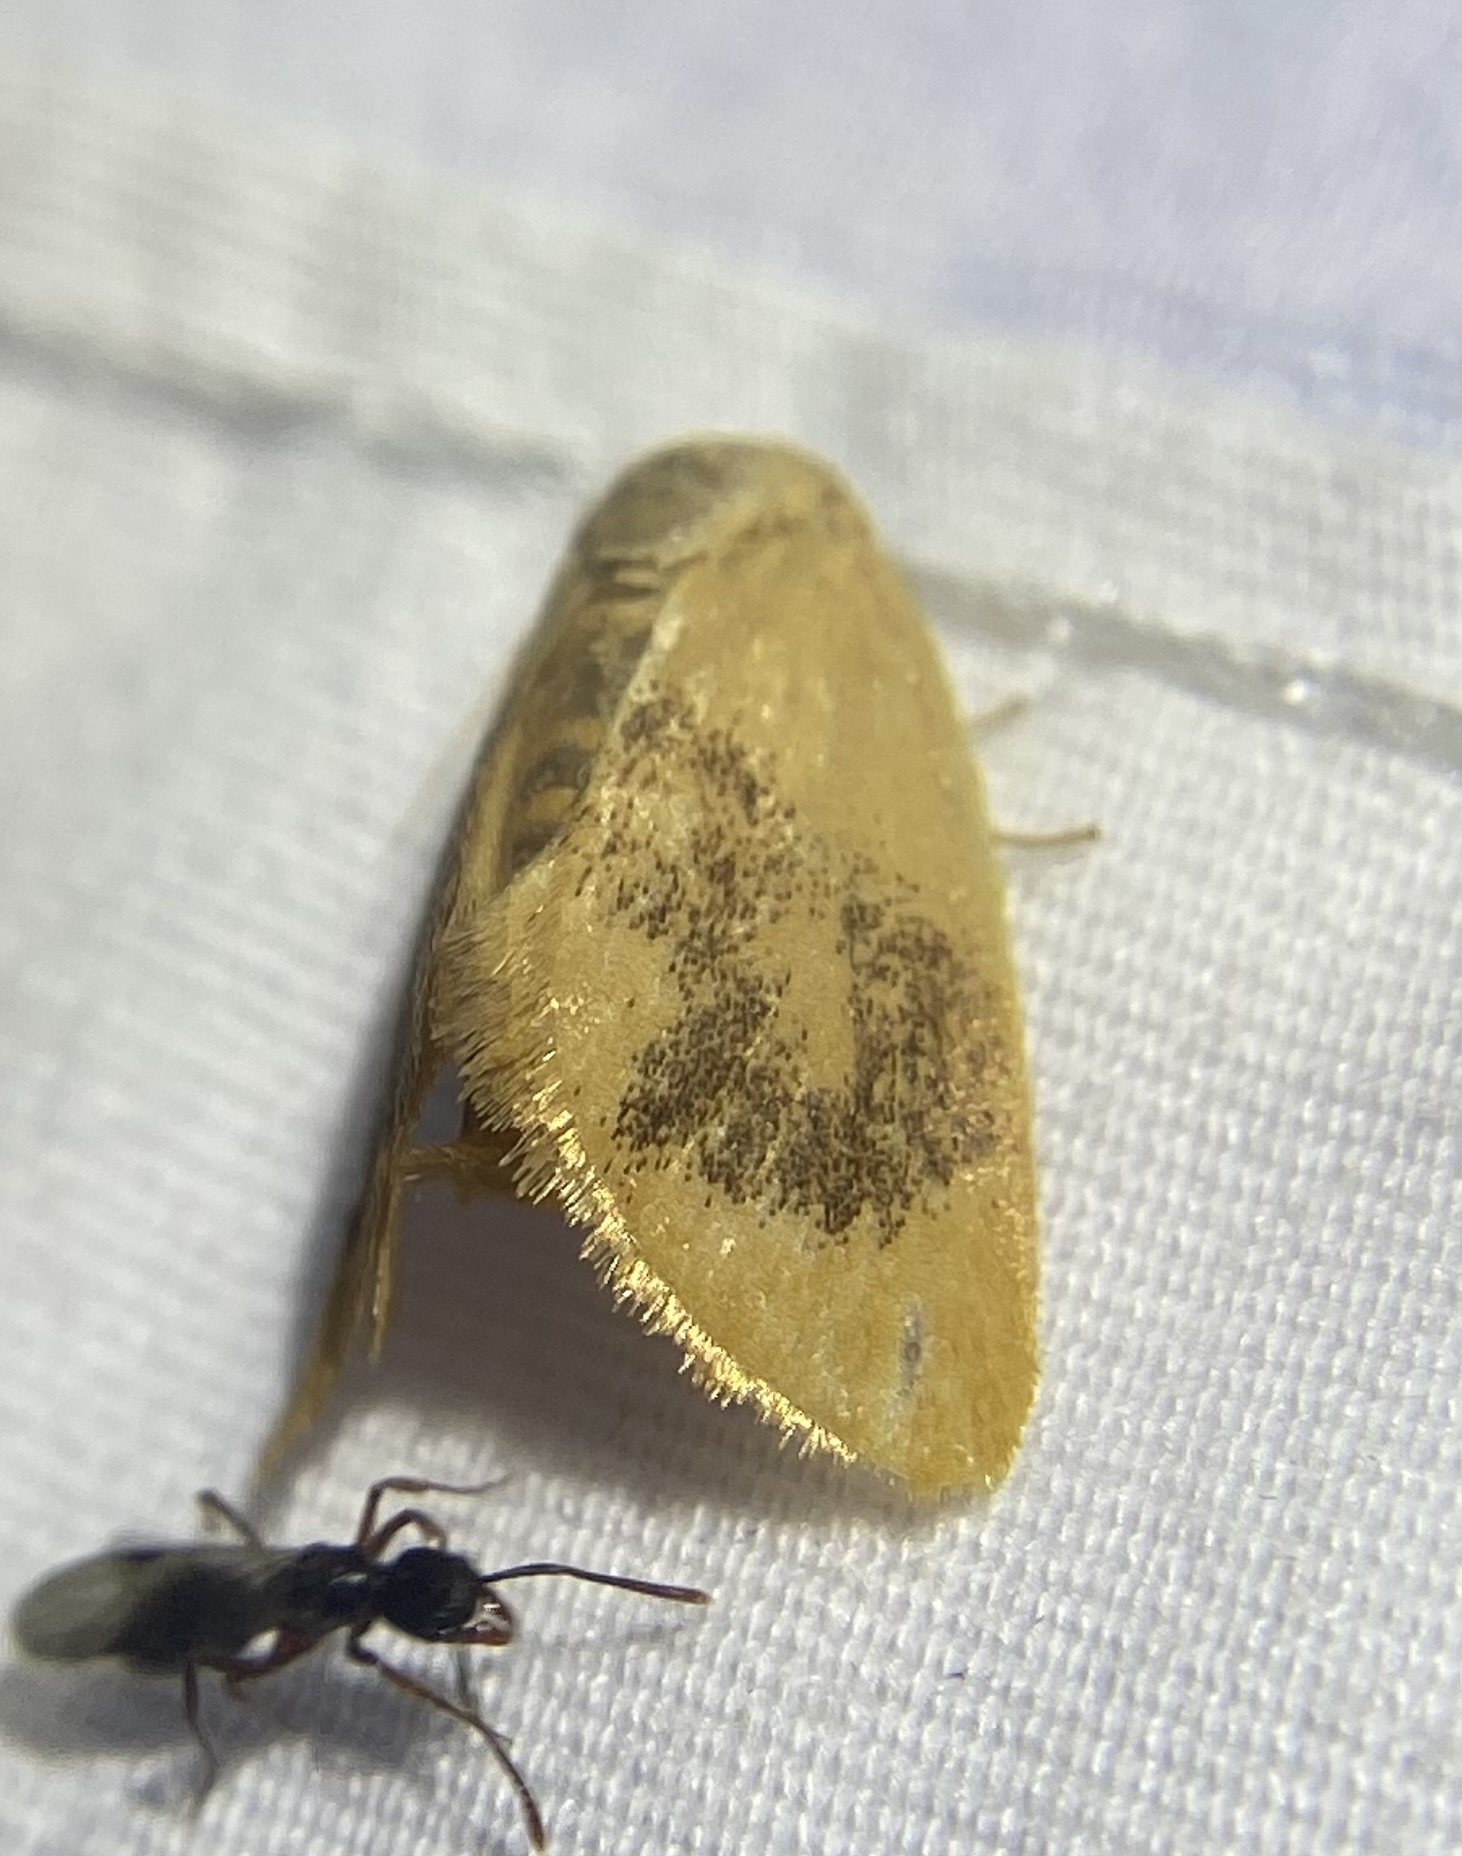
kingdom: Animalia
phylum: Arthropoda
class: Insecta
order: Lepidoptera
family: Limacodidae
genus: Tortricidia
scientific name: Tortricidia flexuosa
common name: Abbreviated button slug moth
